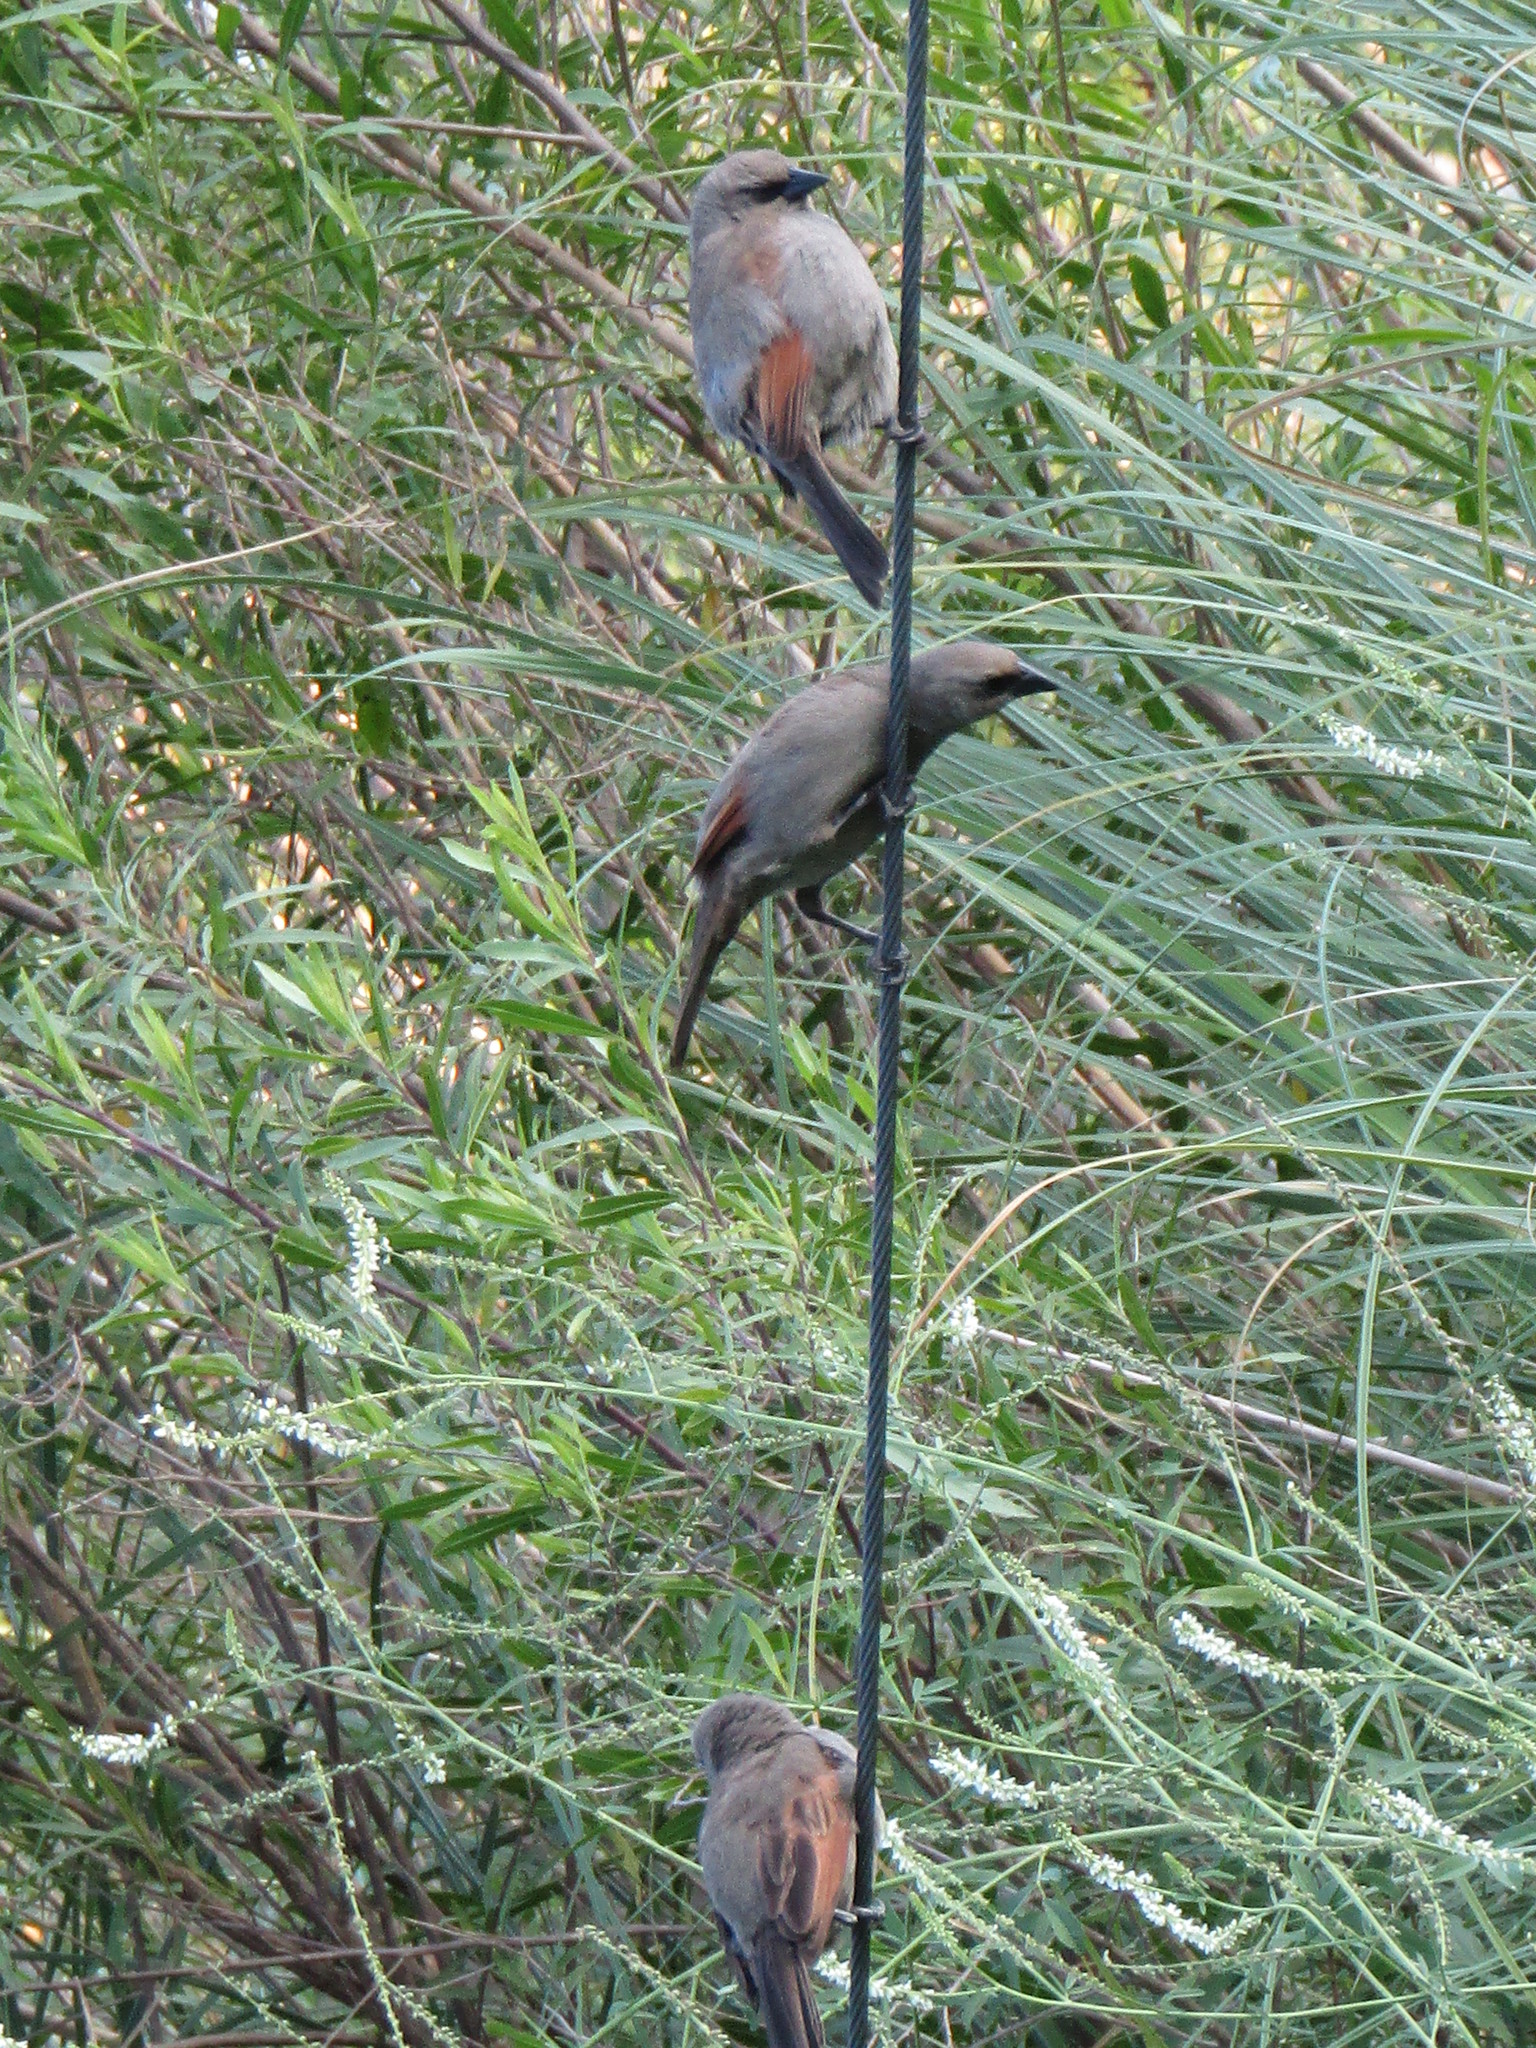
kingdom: Animalia
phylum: Chordata
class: Aves
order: Passeriformes
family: Icteridae
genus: Agelaioides
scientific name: Agelaioides badius
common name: Baywing
